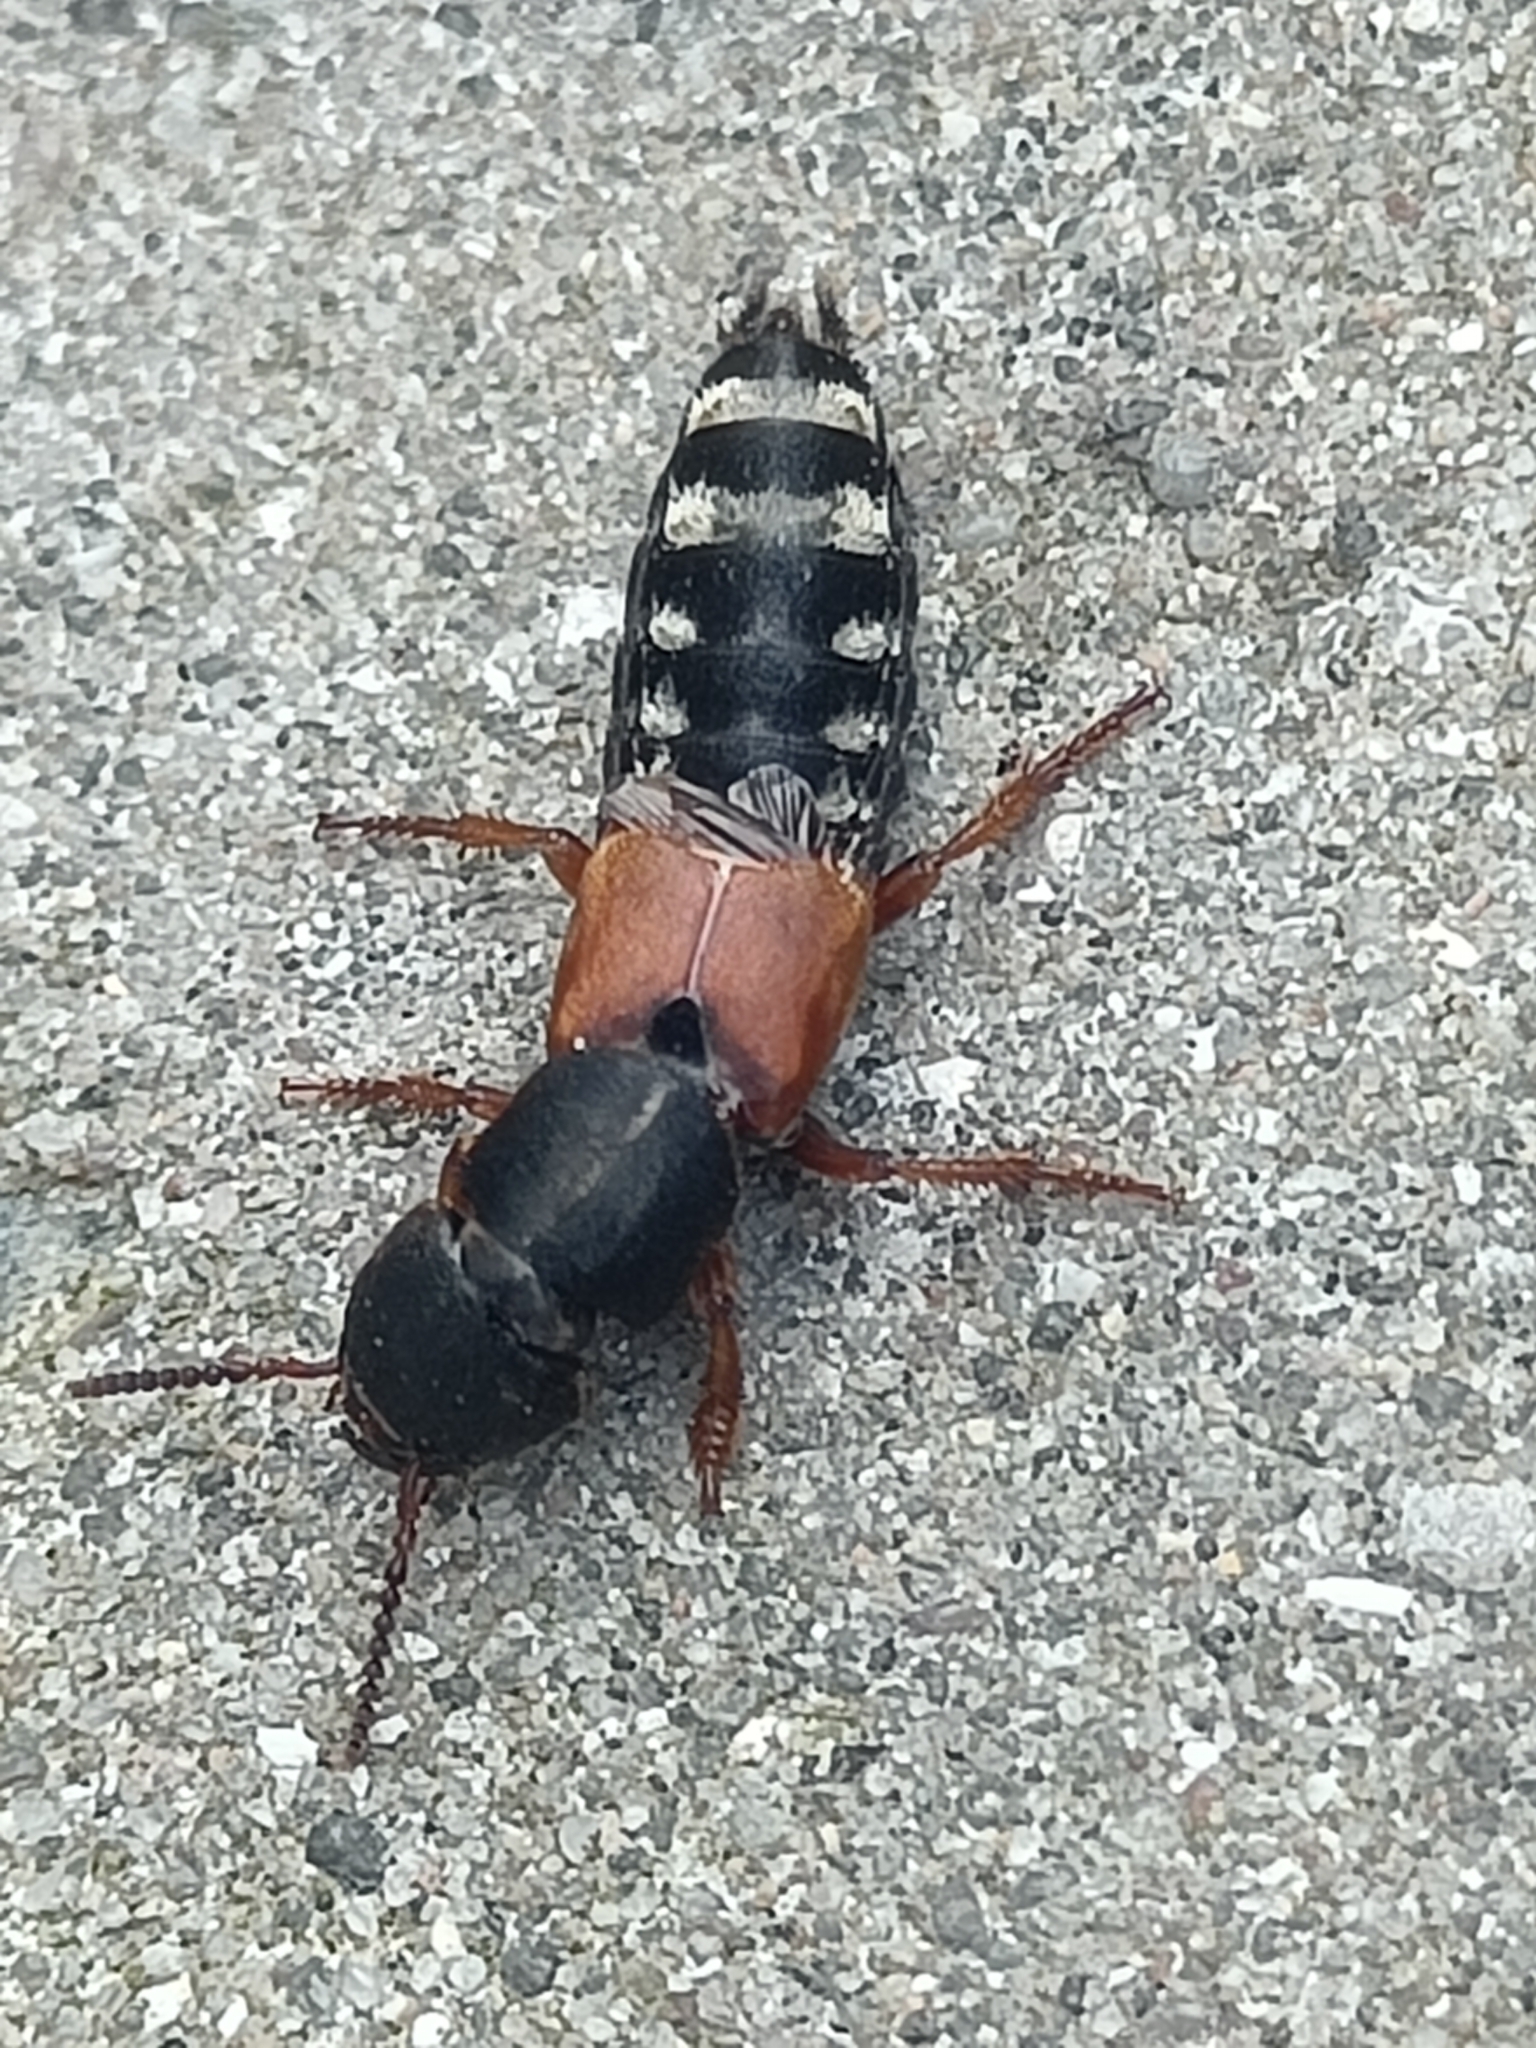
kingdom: Animalia
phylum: Arthropoda
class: Insecta
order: Coleoptera
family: Staphylinidae
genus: Platydracus
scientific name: Platydracus stercorarius
